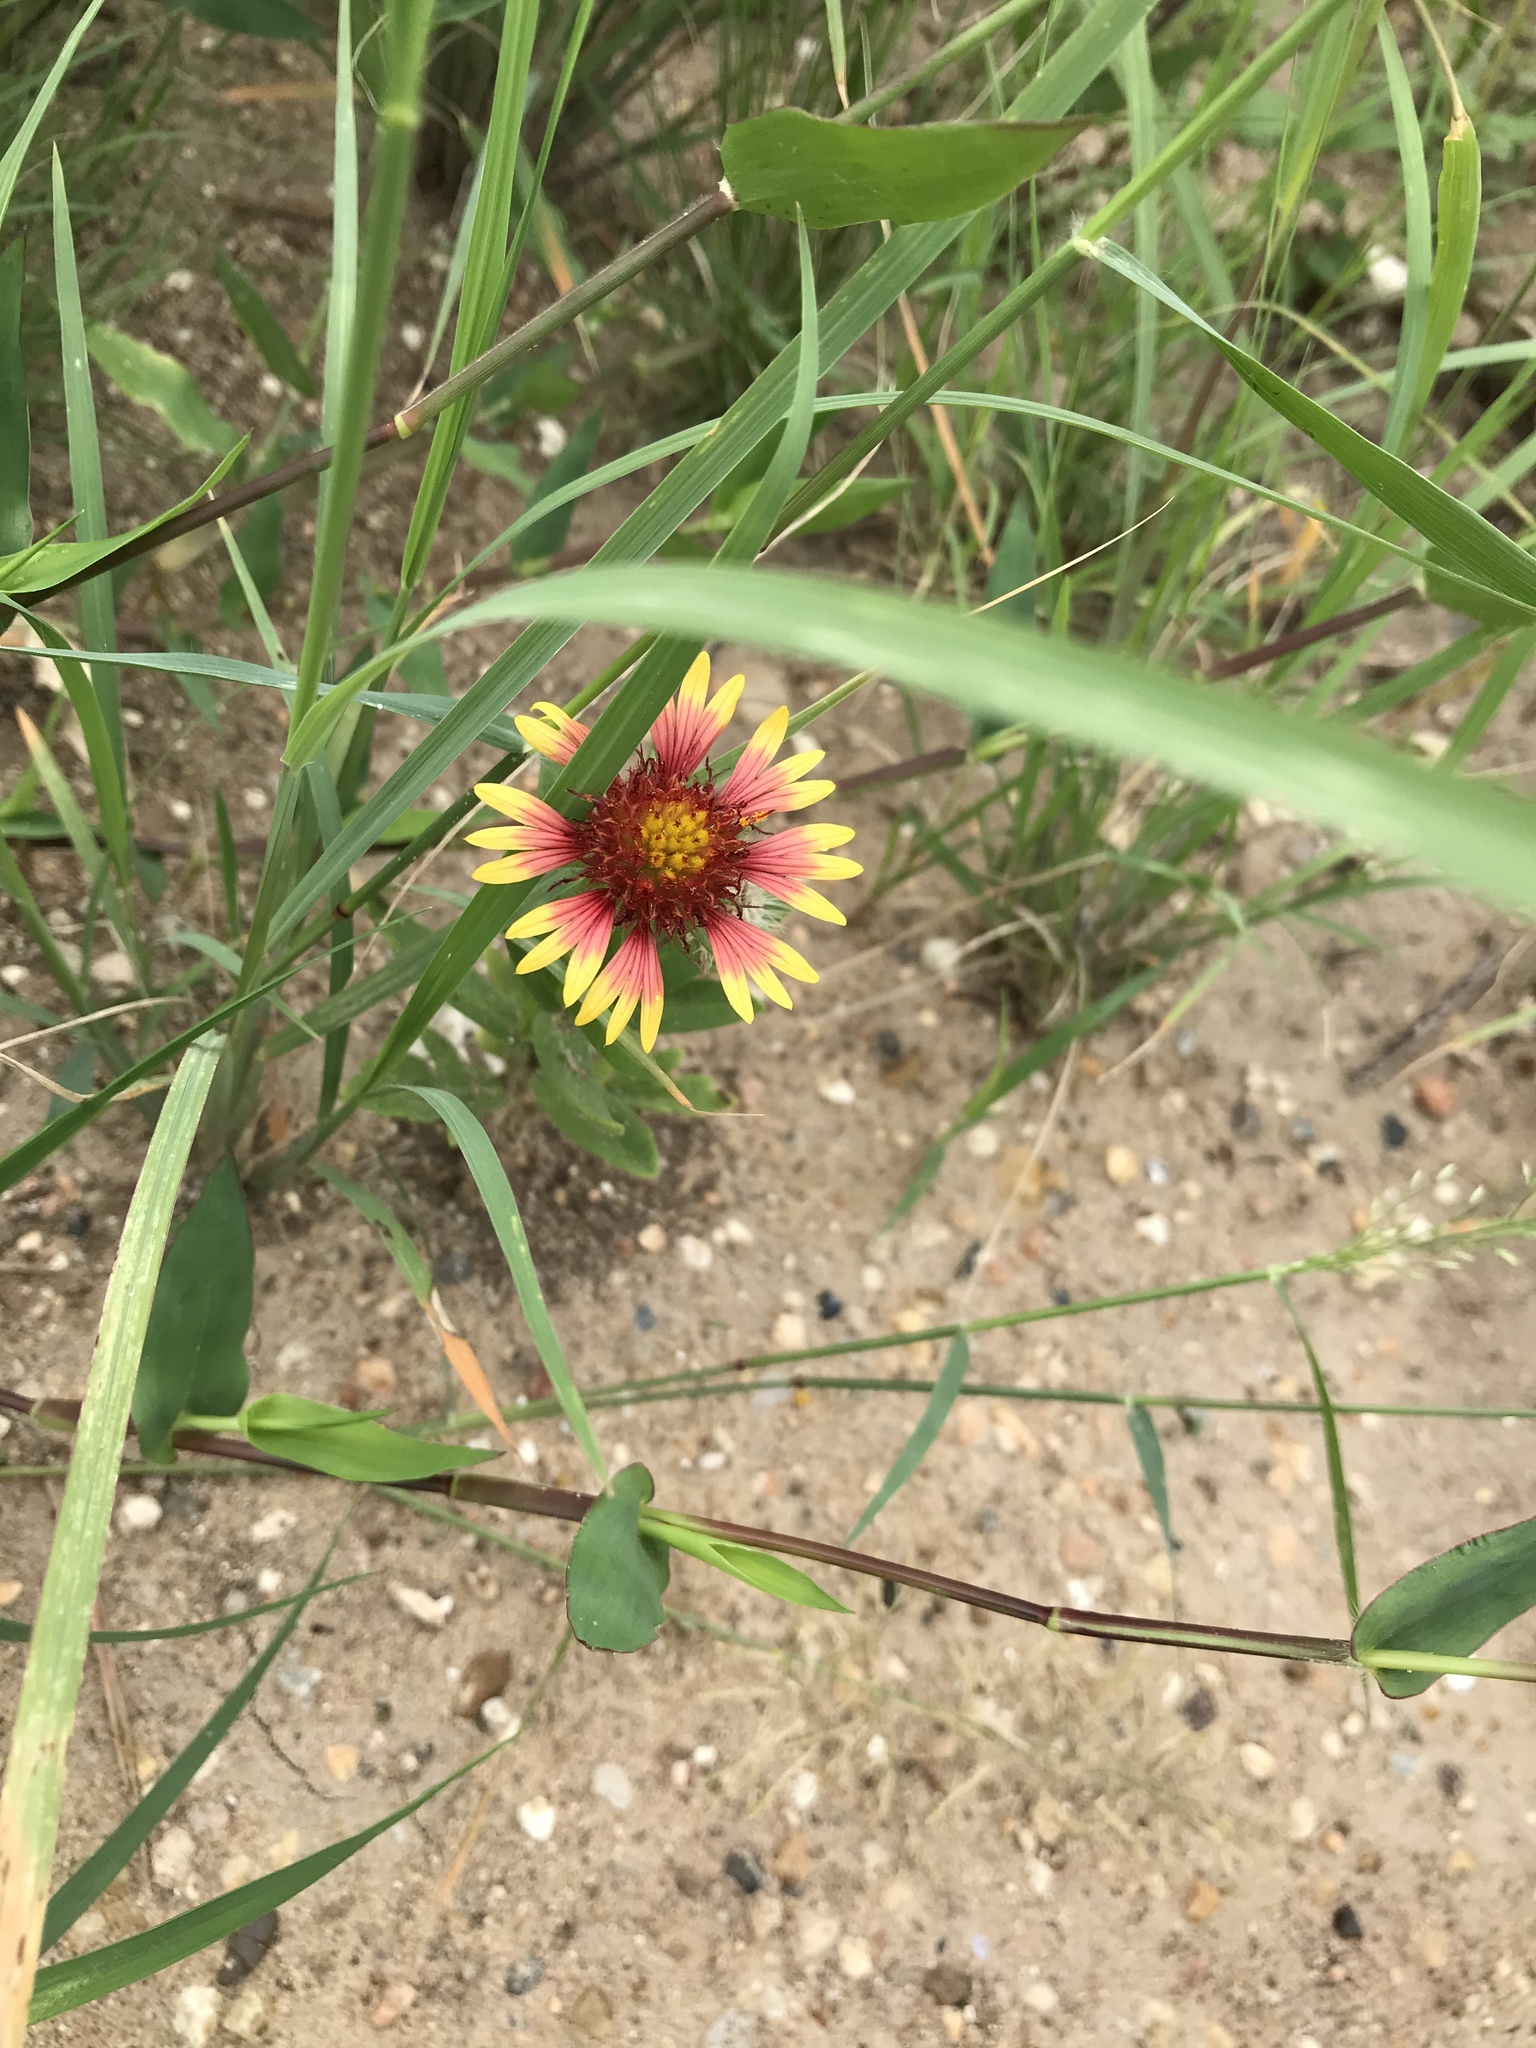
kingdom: Plantae
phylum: Tracheophyta
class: Magnoliopsida
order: Asterales
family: Asteraceae
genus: Gaillardia
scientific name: Gaillardia pulchella
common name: Firewheel
